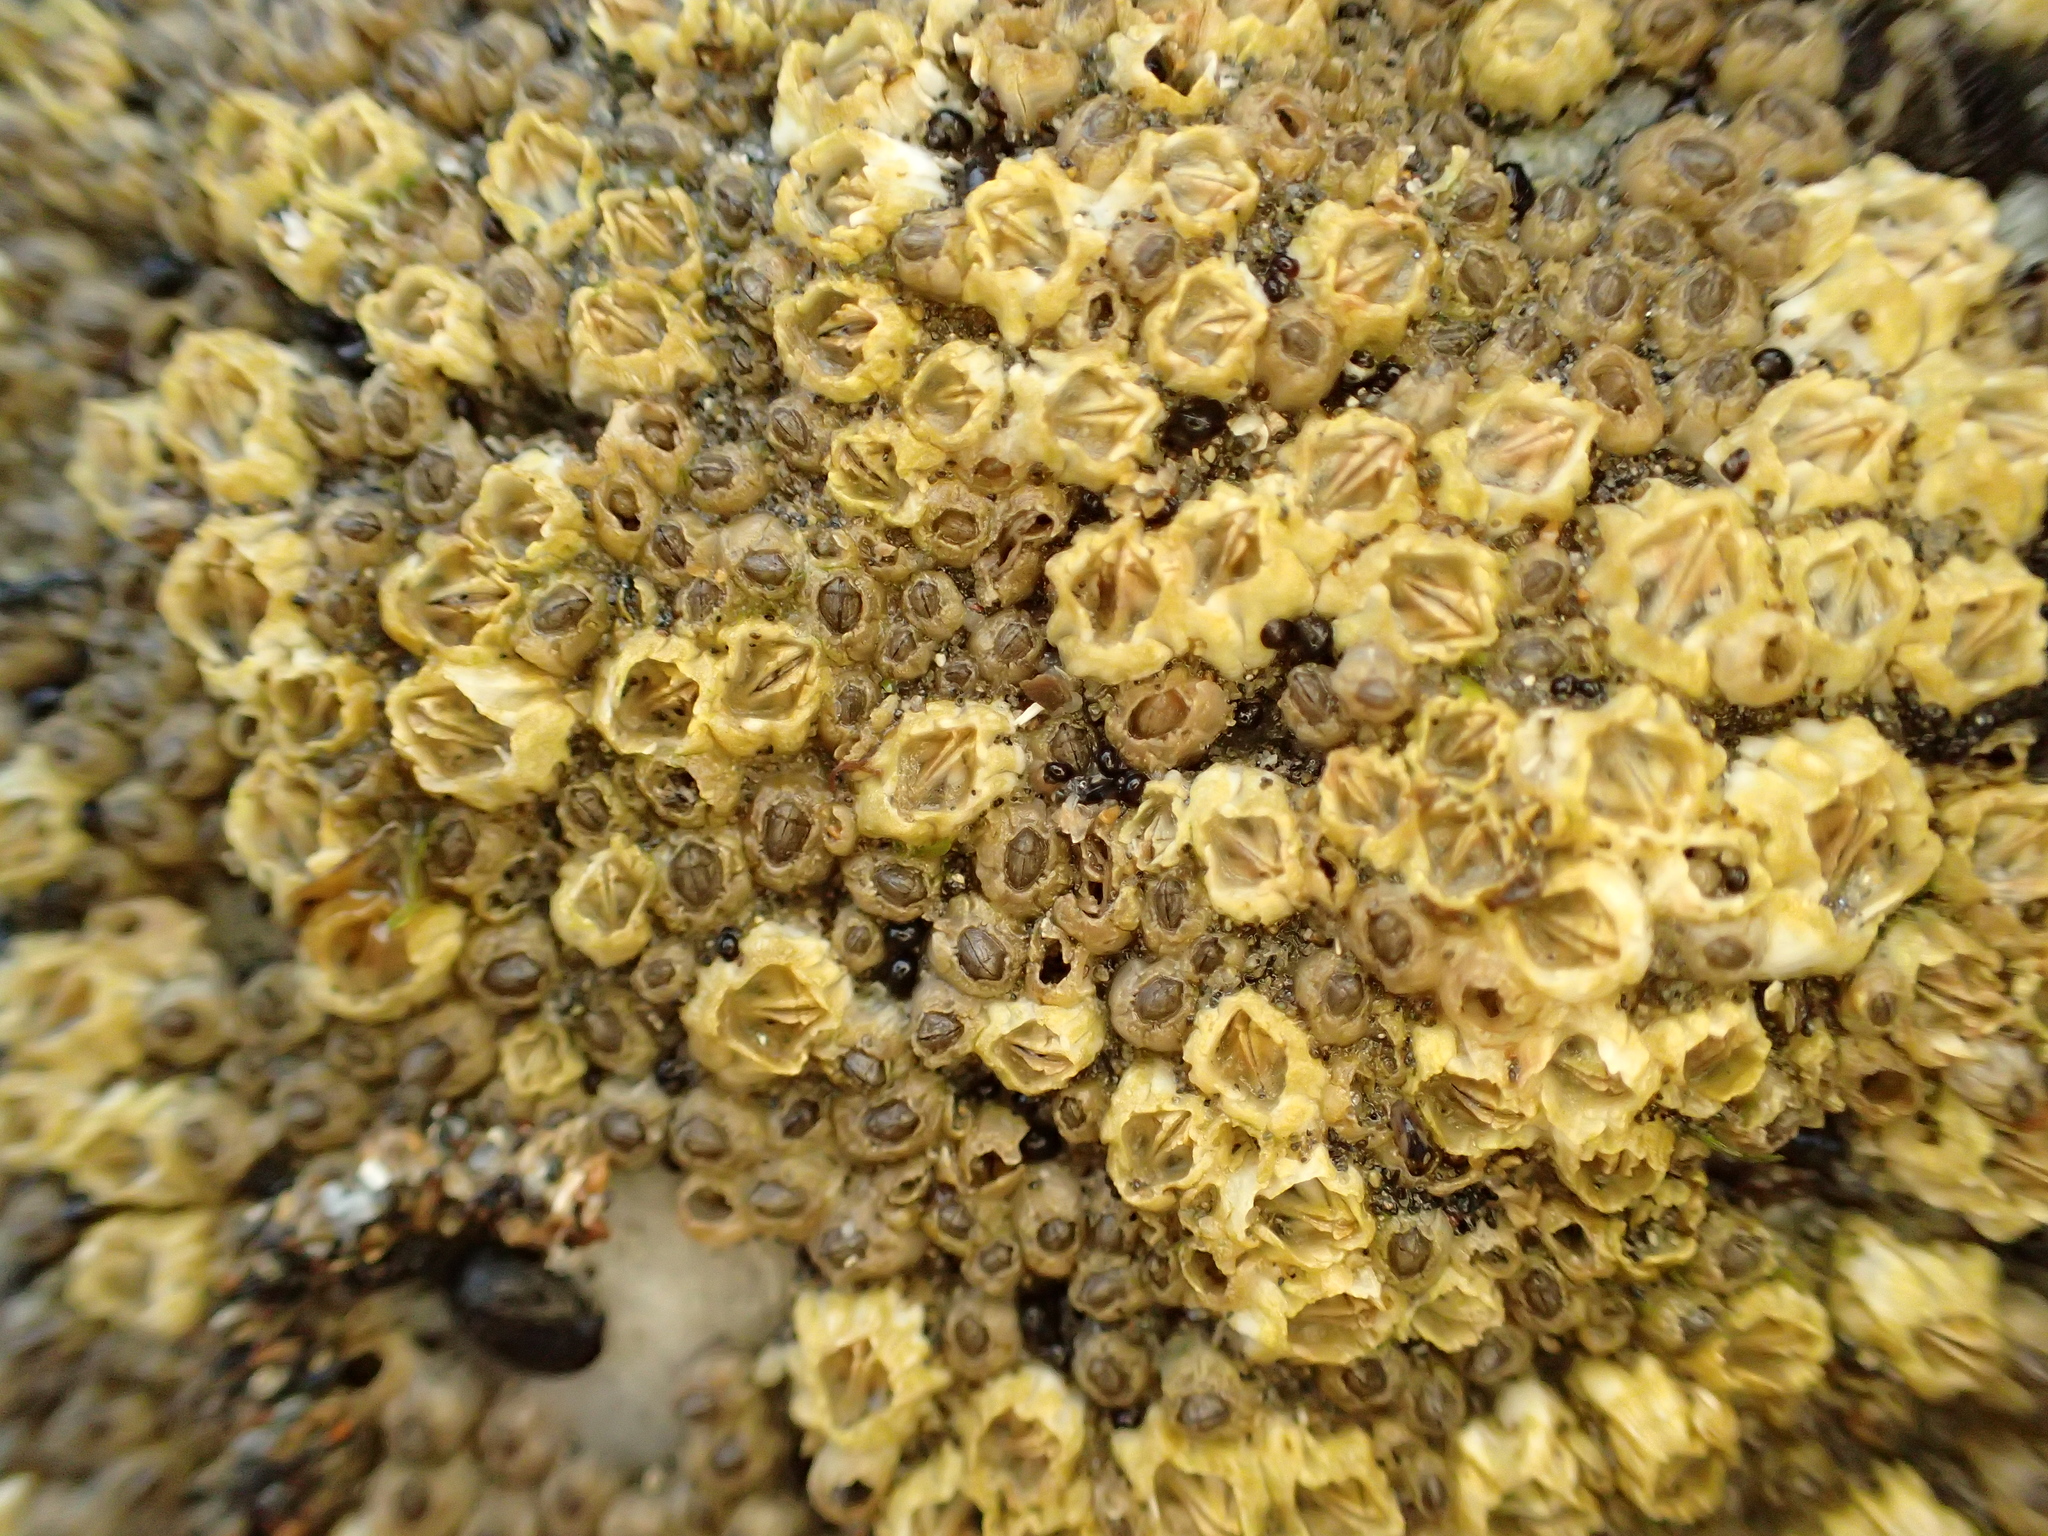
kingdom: Animalia
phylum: Arthropoda
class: Maxillopoda
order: Sessilia
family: Balanidae
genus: Balanus
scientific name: Balanus glandula
